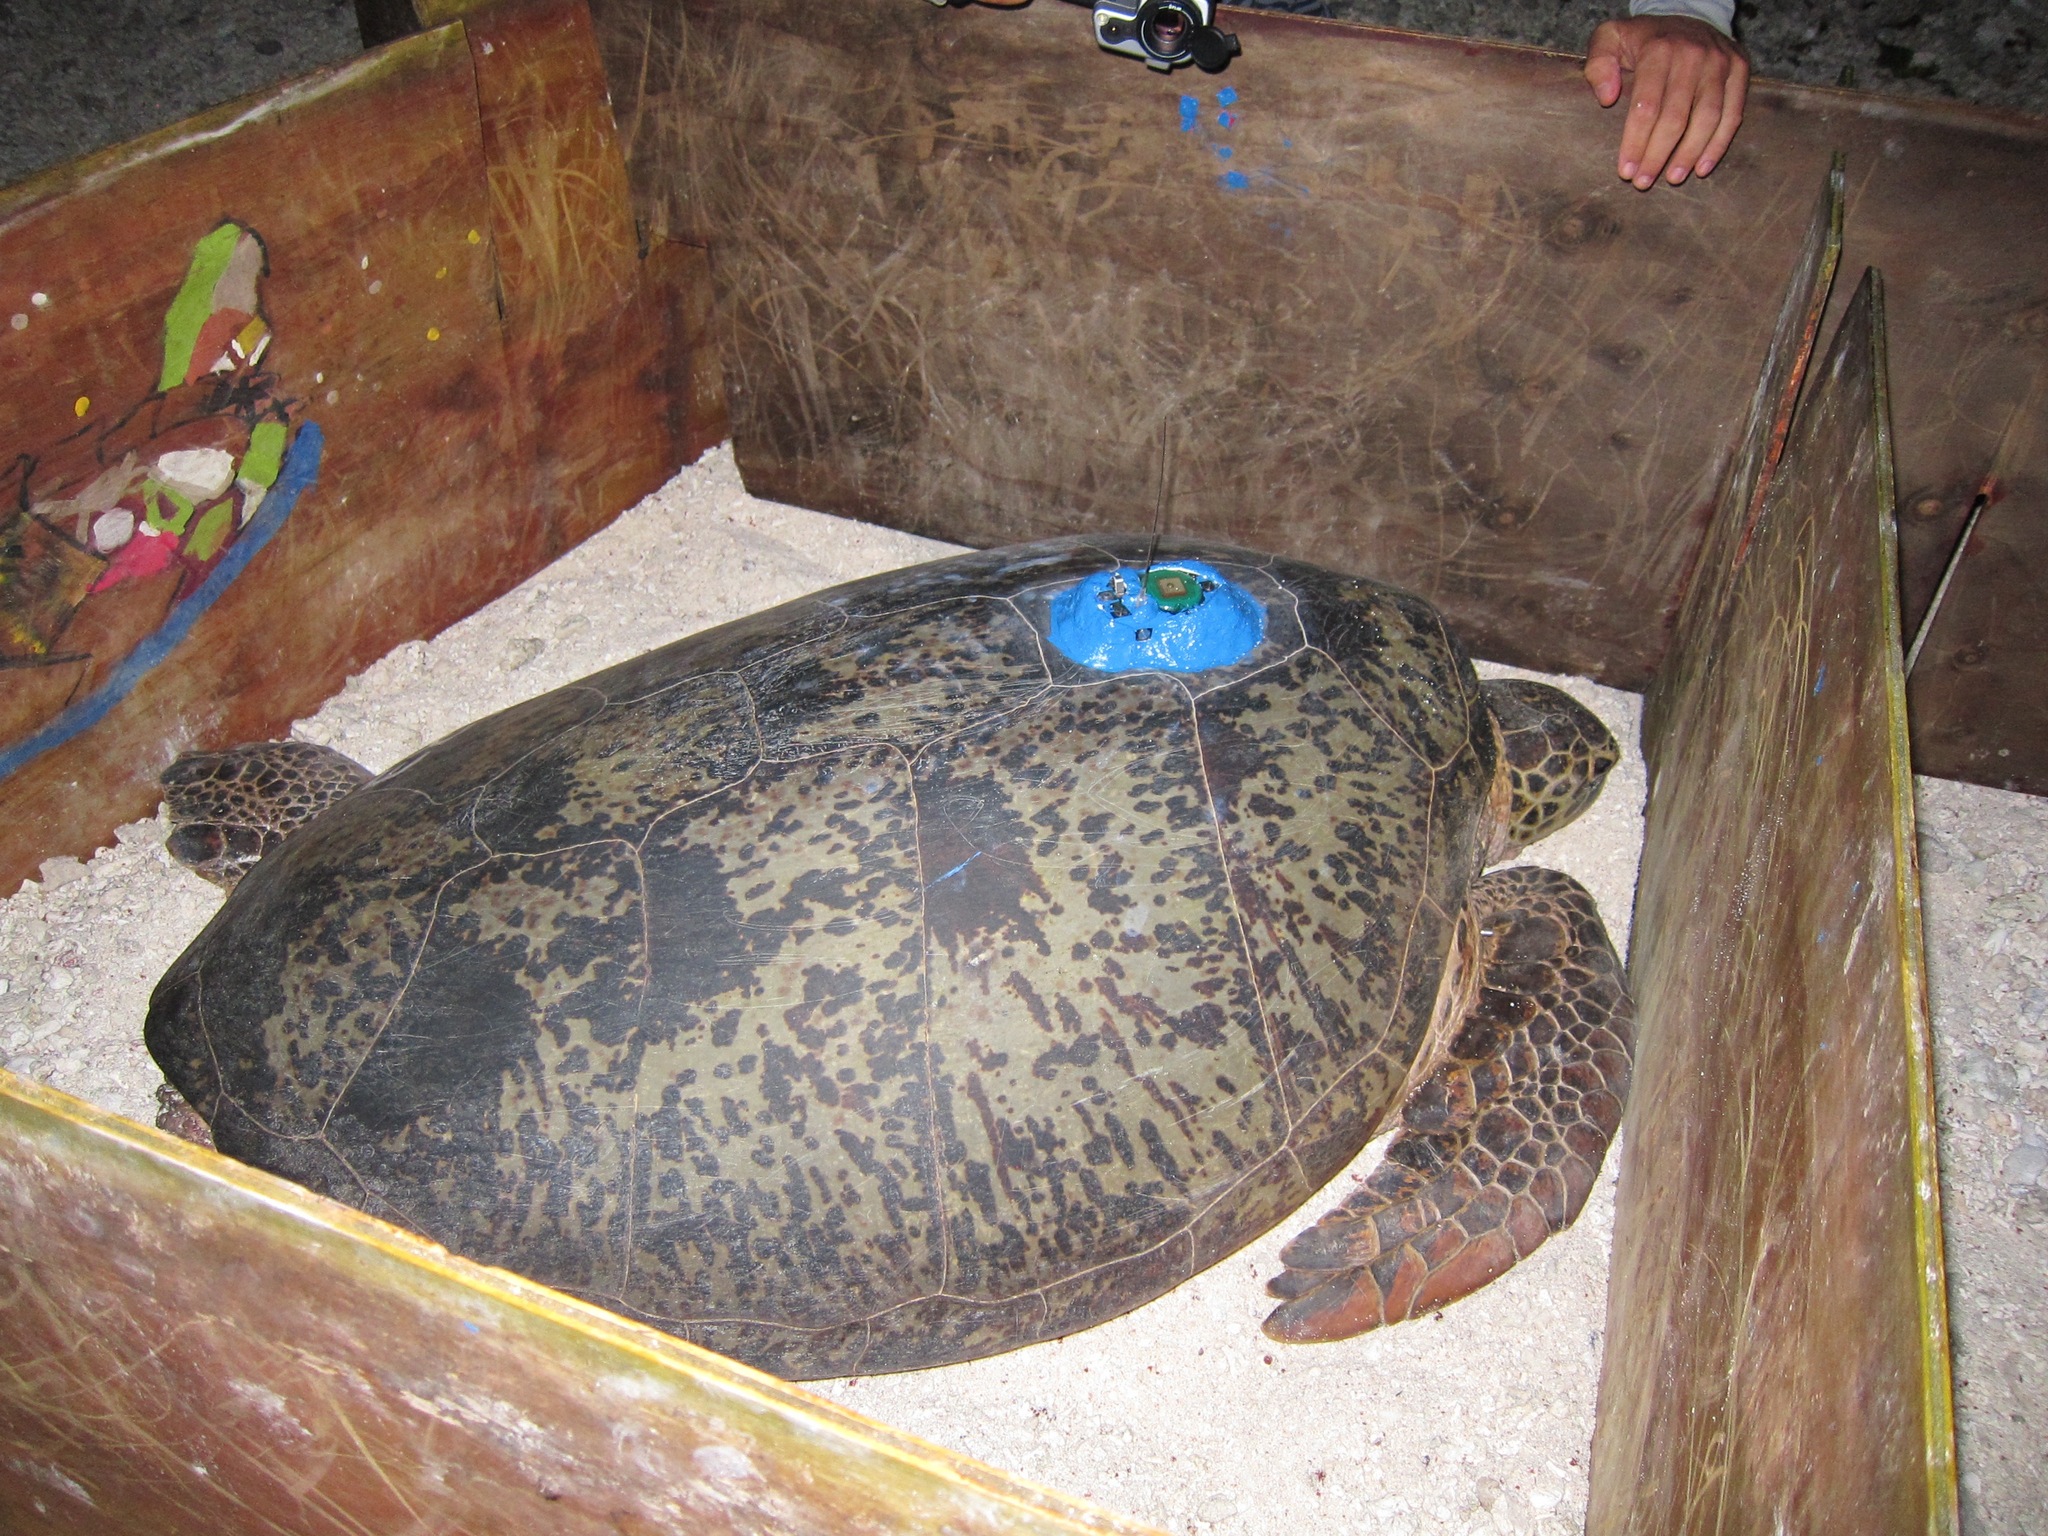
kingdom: Animalia
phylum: Chordata
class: Testudines
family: Cheloniidae
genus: Chelonia
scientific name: Chelonia mydas
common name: Green turtle
